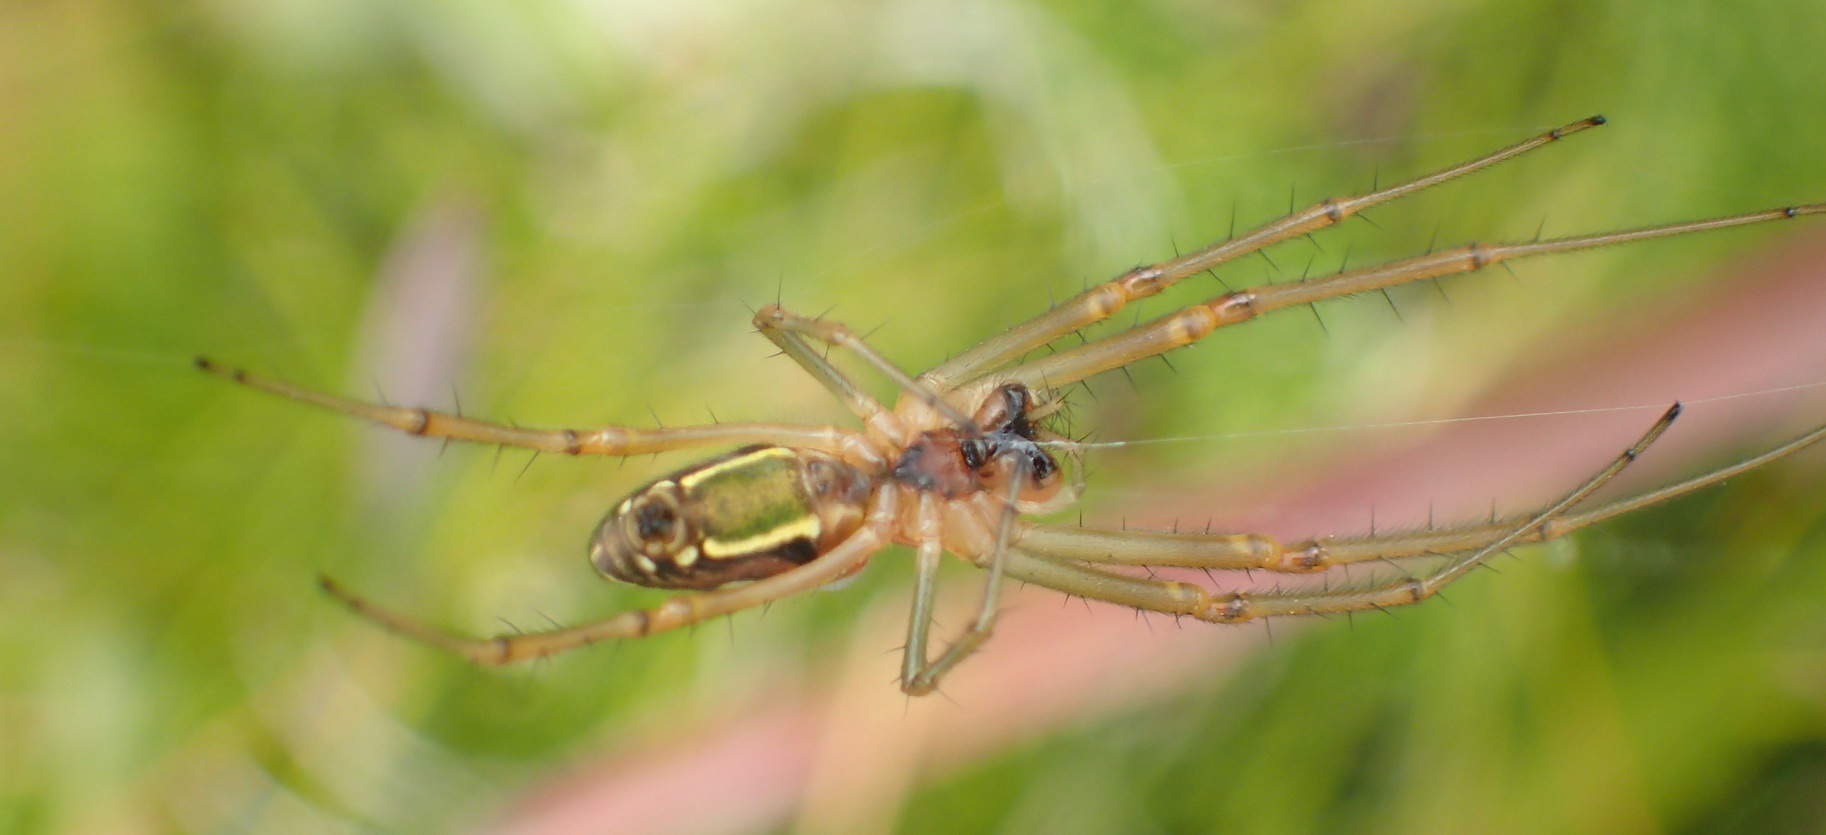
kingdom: Animalia
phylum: Arthropoda
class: Arachnida
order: Araneae
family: Tetragnathidae
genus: Leucauge
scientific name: Leucauge festiva
